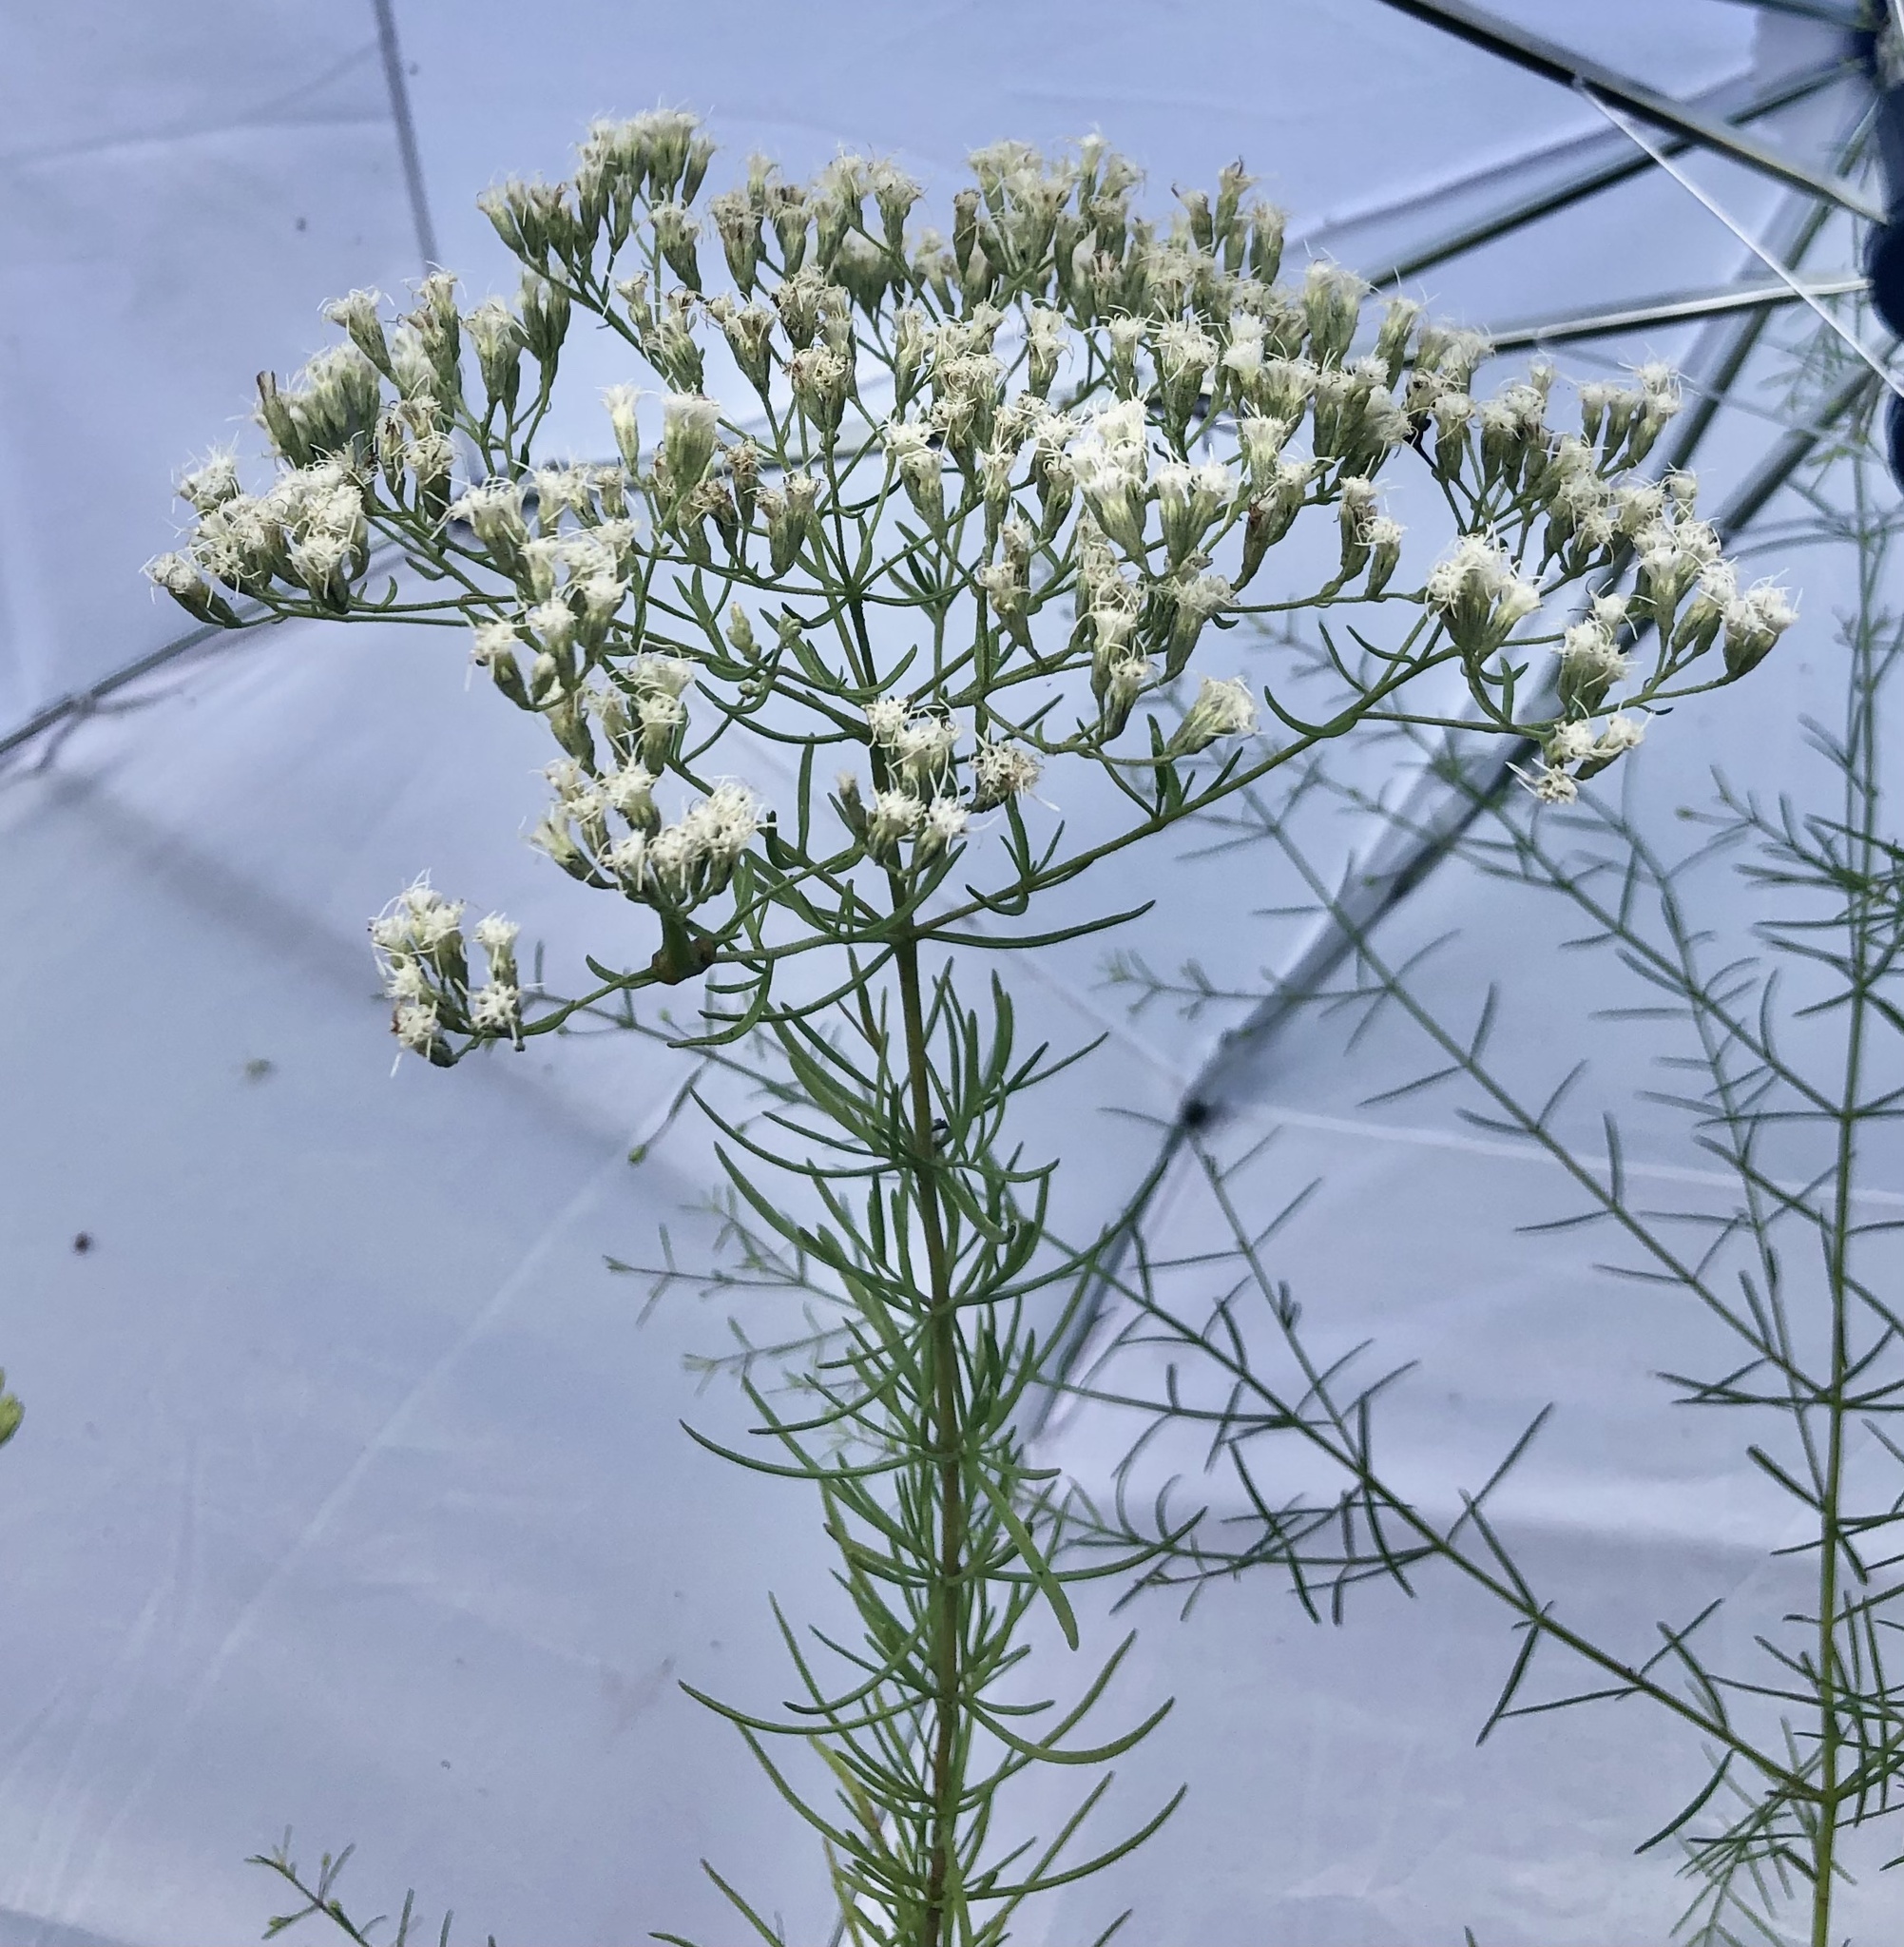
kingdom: Plantae
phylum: Tracheophyta
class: Magnoliopsida
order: Asterales
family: Asteraceae
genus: Eupatorium
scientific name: Eupatorium hyssopifolium
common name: Hyssop-leaf thoroughwort
